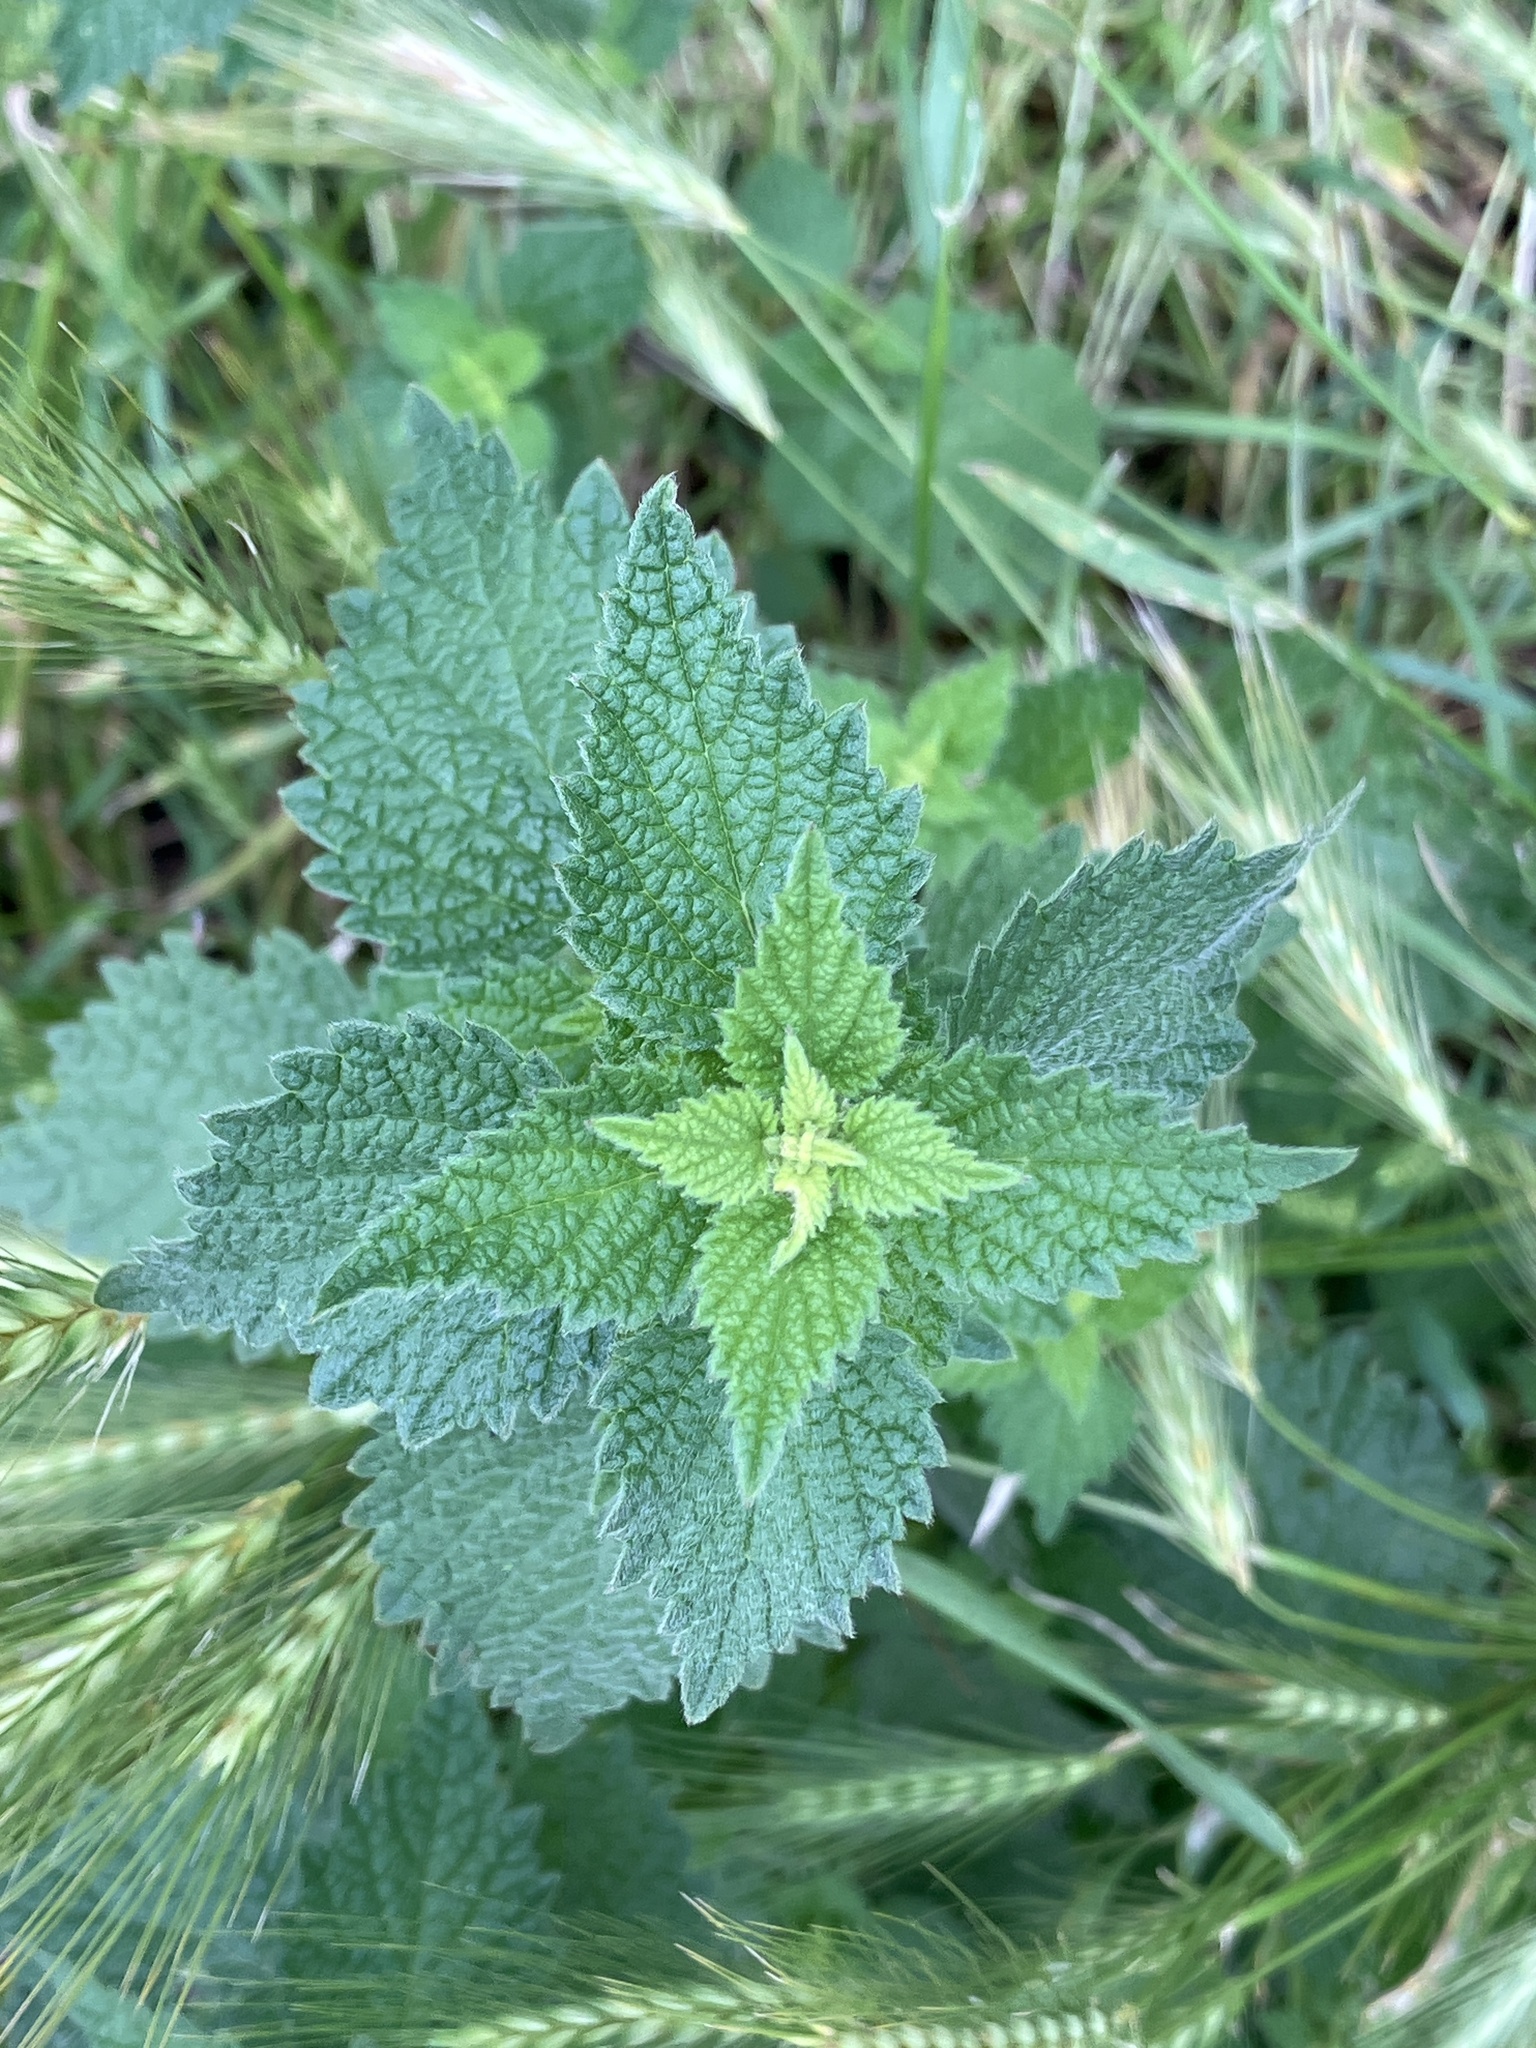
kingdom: Plantae
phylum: Tracheophyta
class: Magnoliopsida
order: Lamiales
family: Lamiaceae
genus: Ballota
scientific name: Ballota nigra
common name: Black horehound
